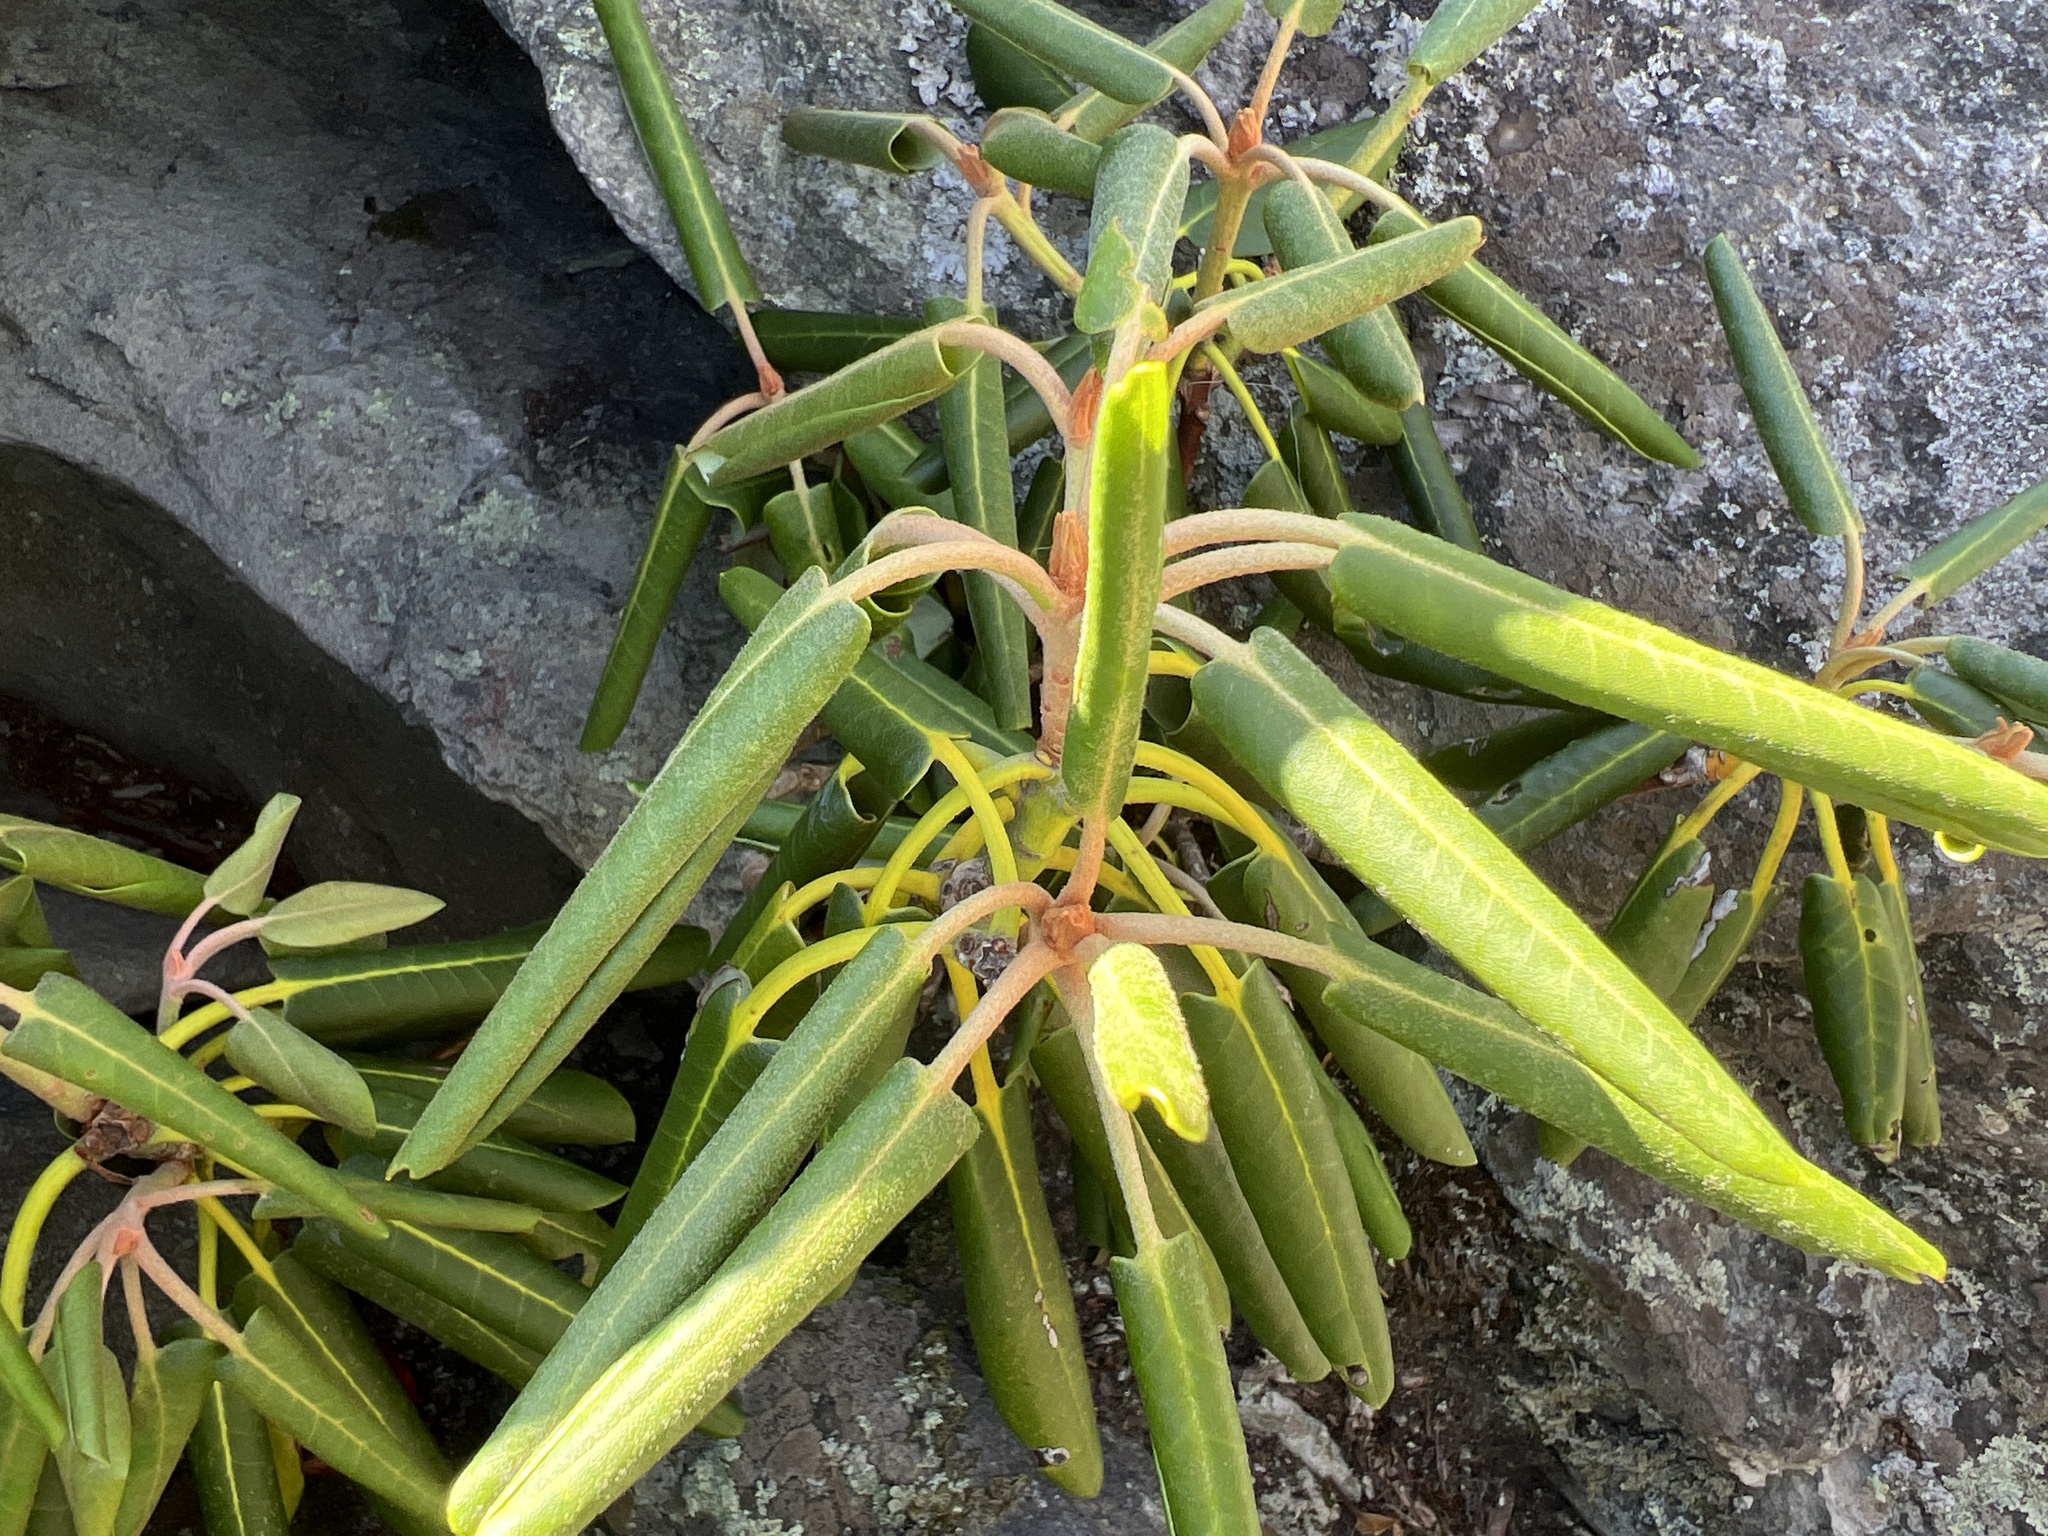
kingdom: Plantae
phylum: Tracheophyta
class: Magnoliopsida
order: Ericales
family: Ericaceae
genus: Rhododendron
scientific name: Rhododendron catawbiense
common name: Catawba rhododendron
